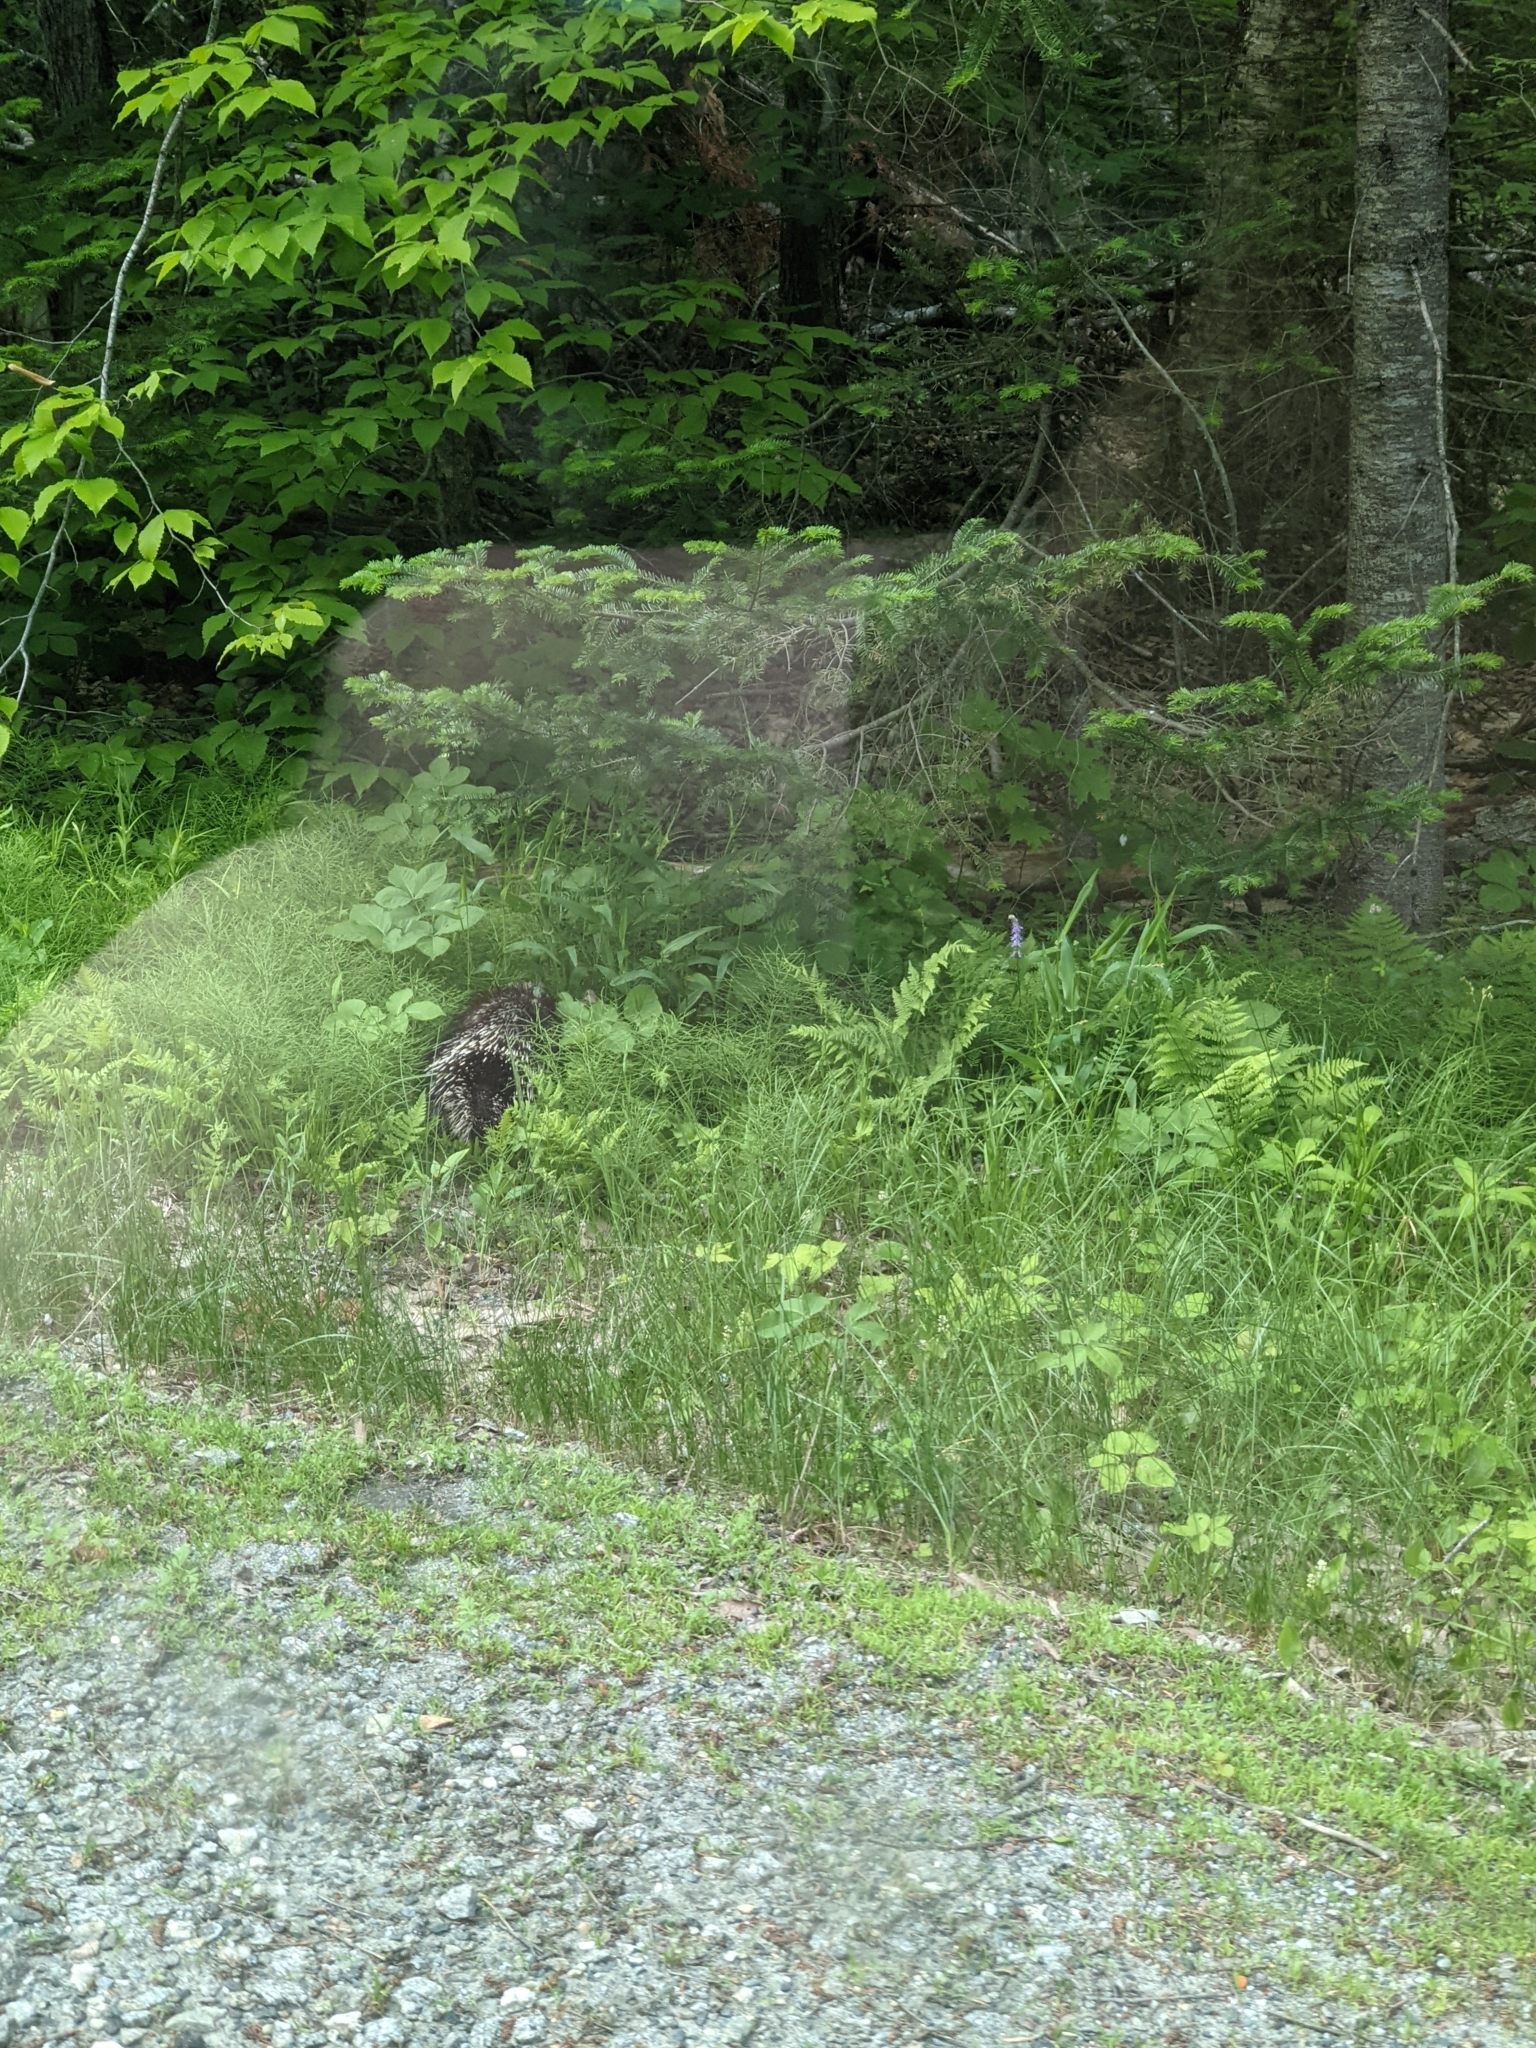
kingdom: Animalia
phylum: Chordata
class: Mammalia
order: Rodentia
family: Erethizontidae
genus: Erethizon
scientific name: Erethizon dorsatus
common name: North american porcupine
